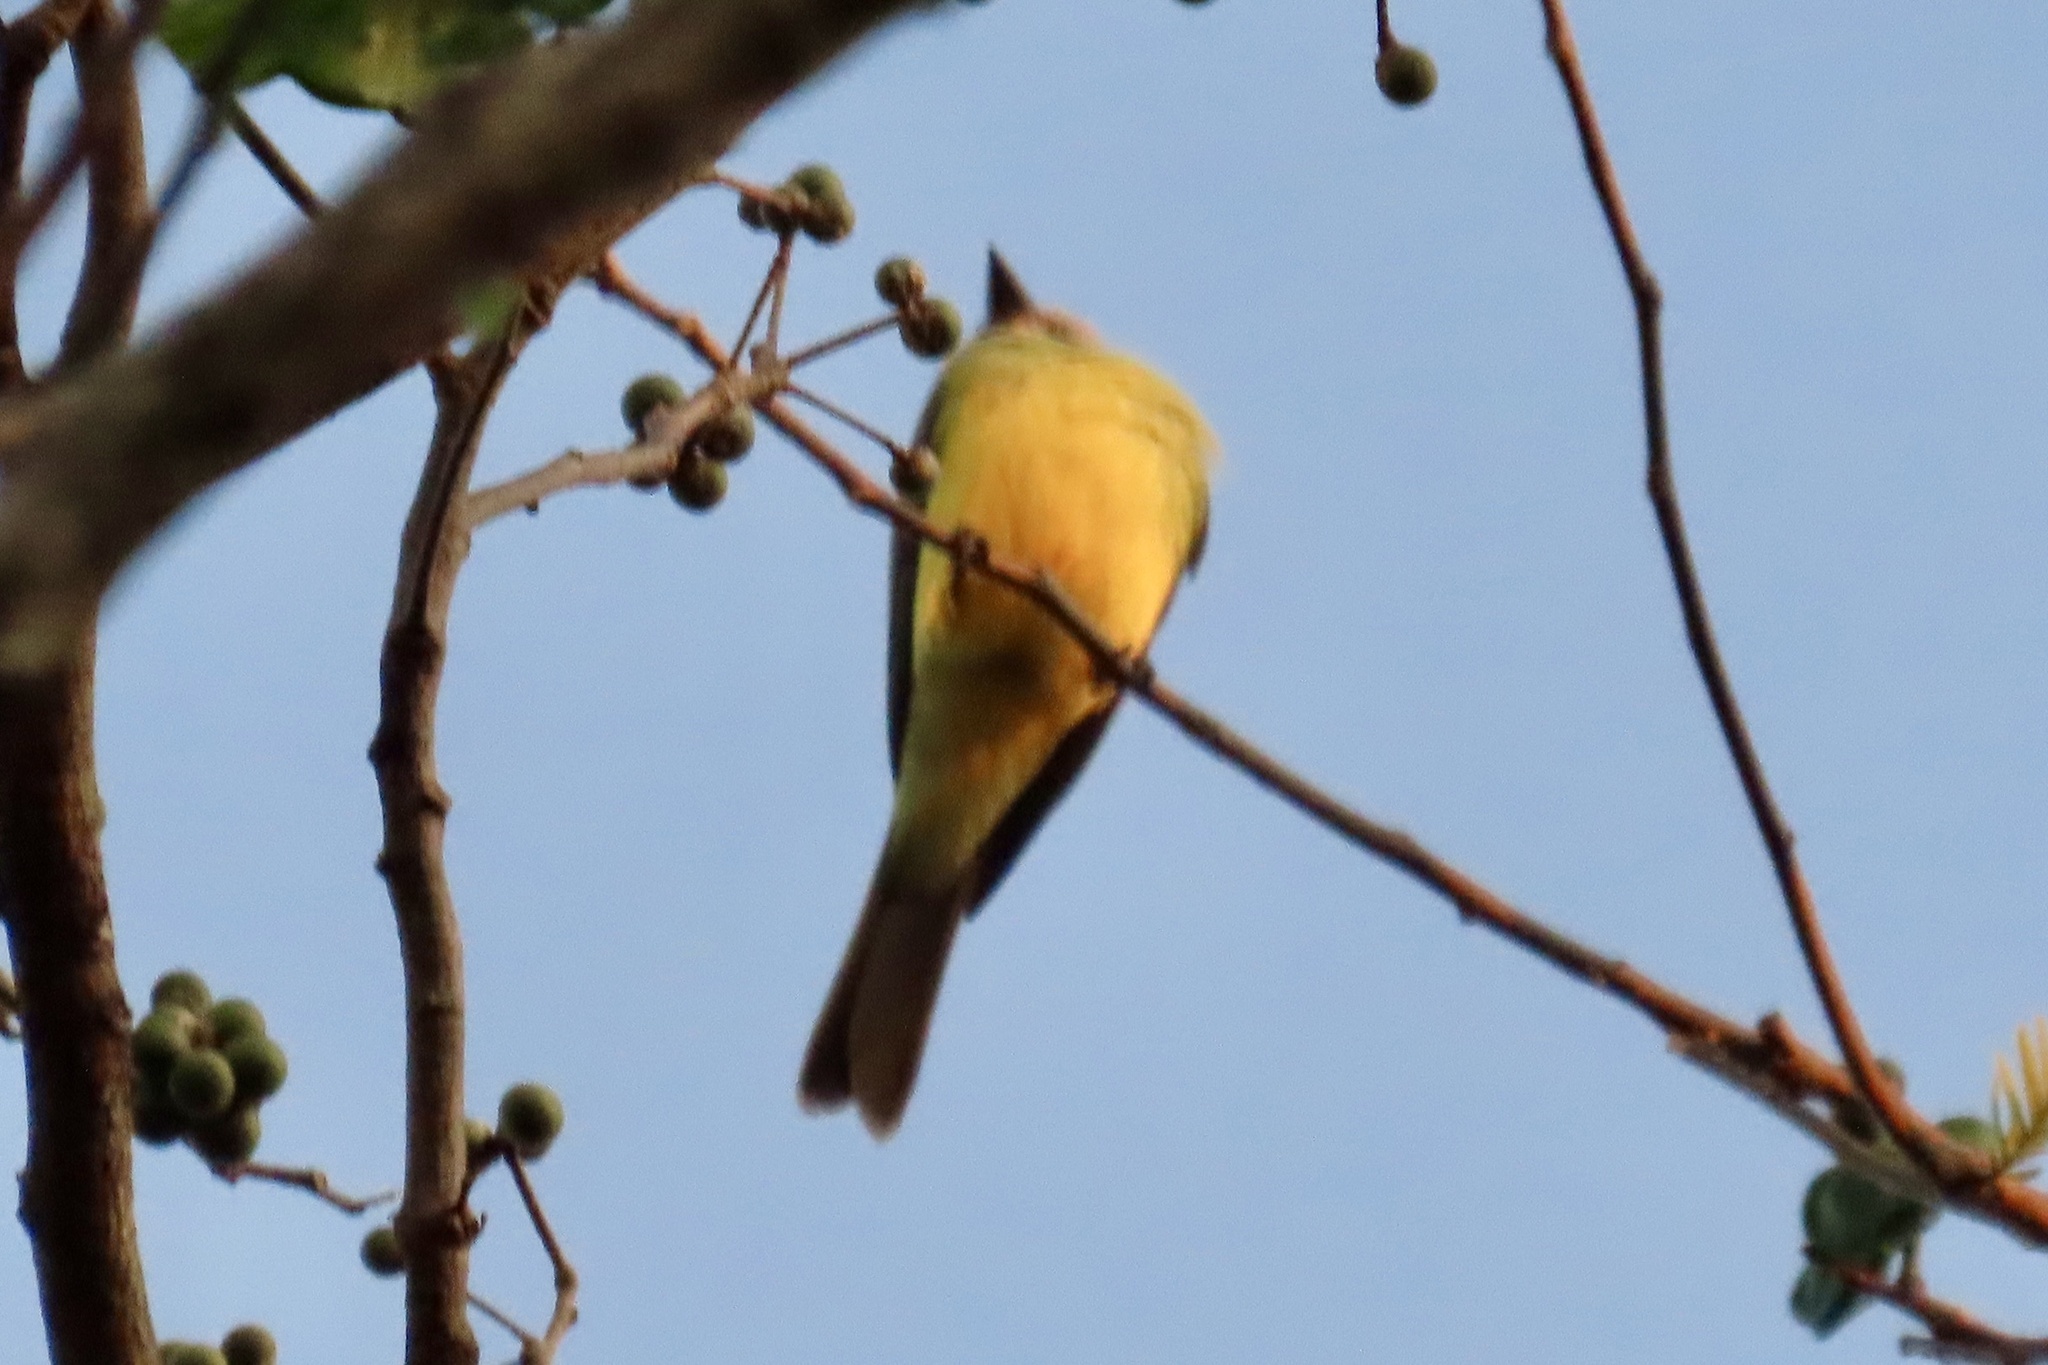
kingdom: Animalia
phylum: Chordata
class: Aves
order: Passeriformes
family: Tyrannidae
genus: Tyrannus
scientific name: Tyrannus melancholicus
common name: Tropical kingbird
